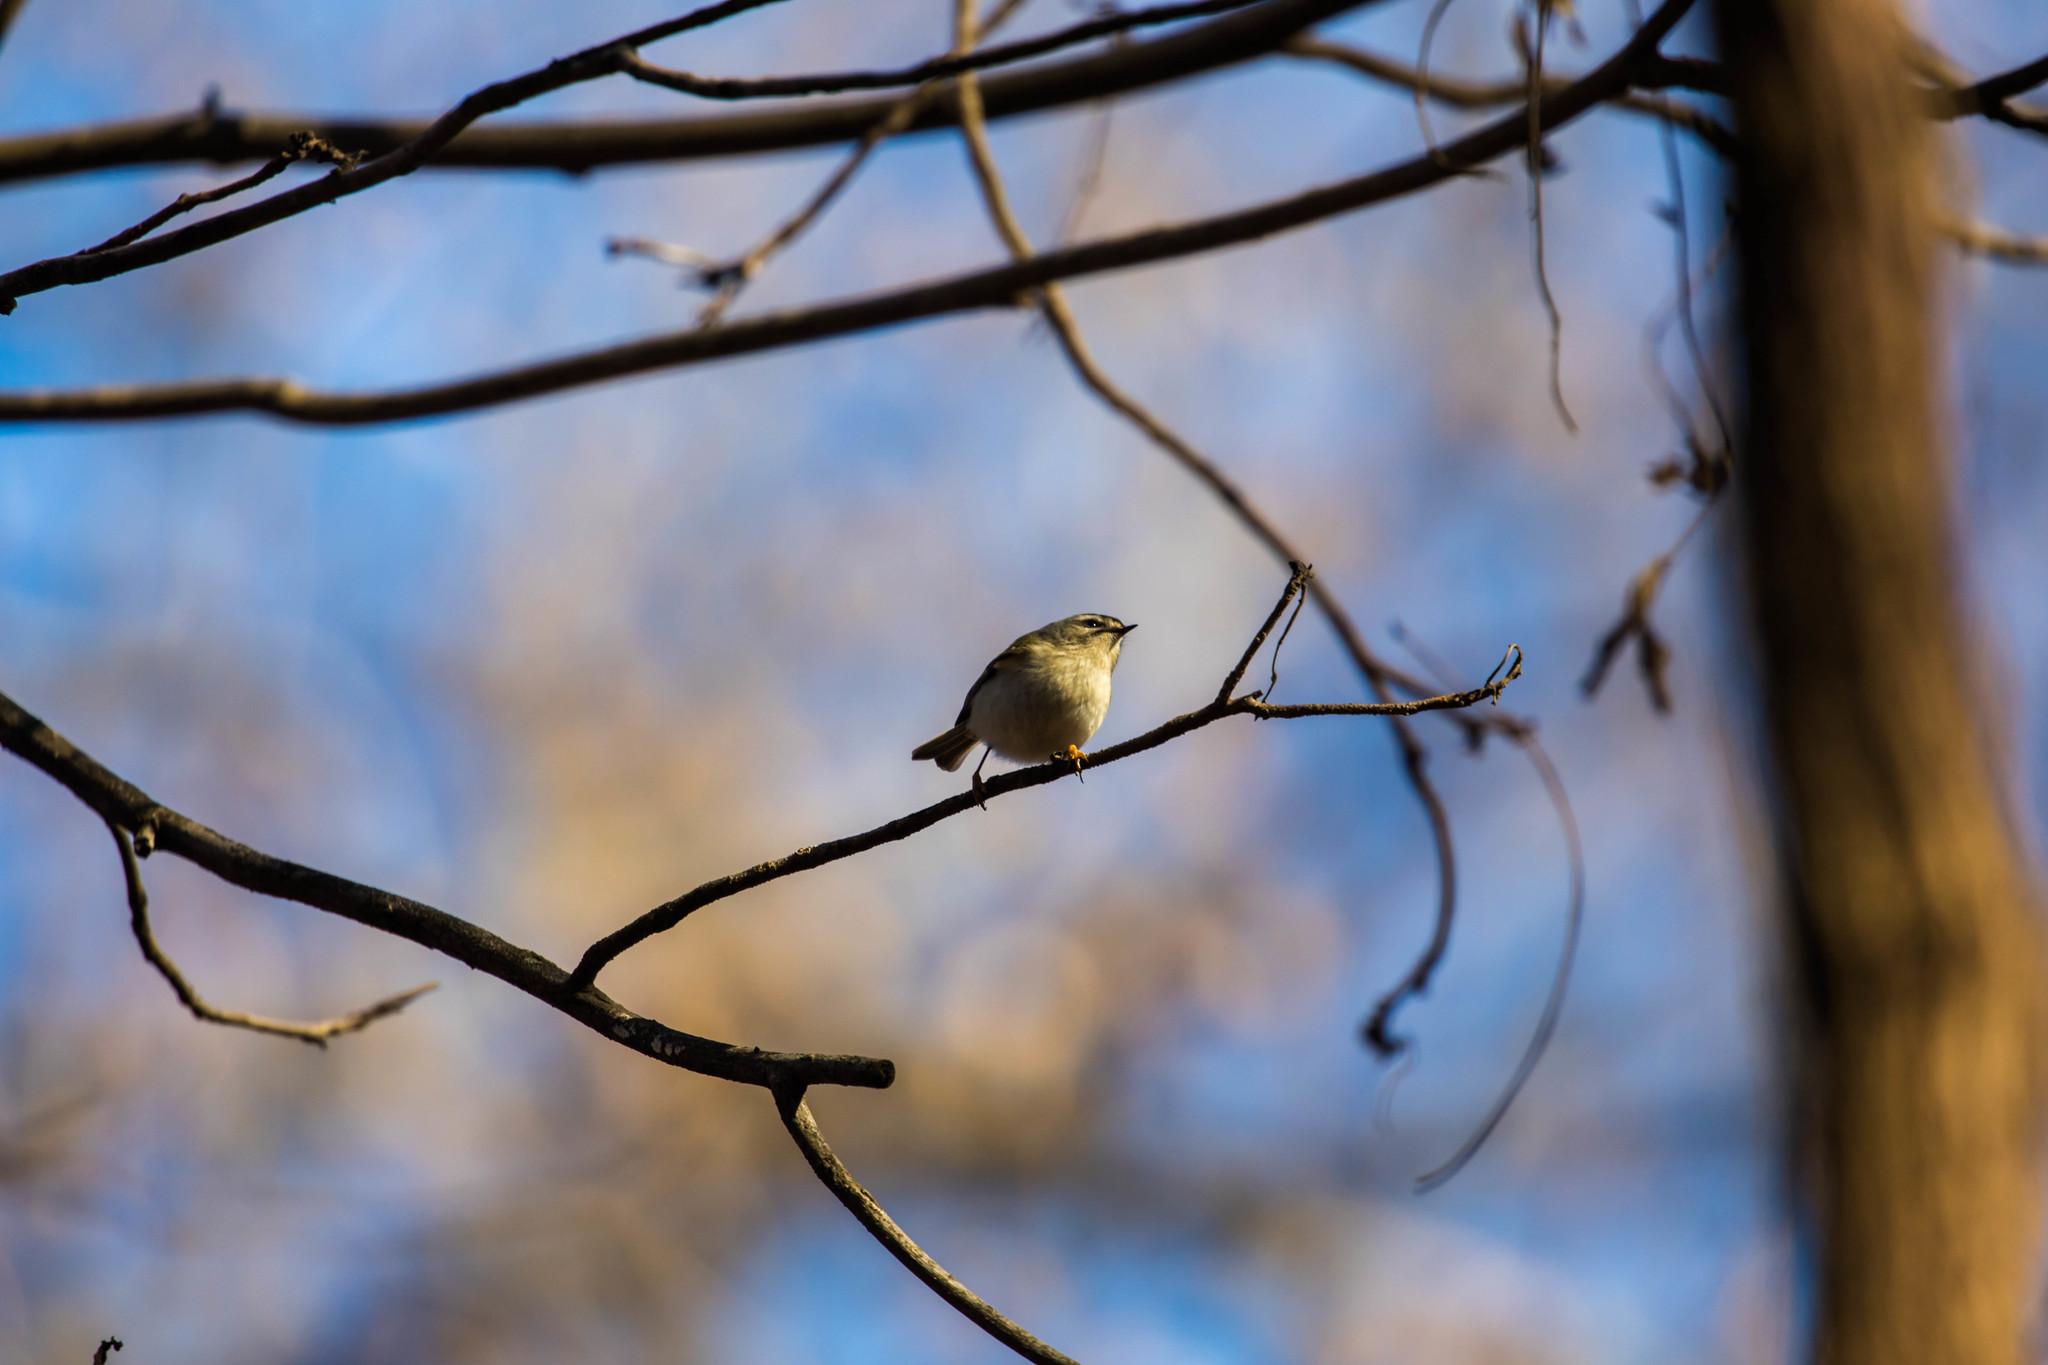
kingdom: Animalia
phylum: Chordata
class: Aves
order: Passeriformes
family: Regulidae
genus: Regulus
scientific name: Regulus satrapa
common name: Golden-crowned kinglet
